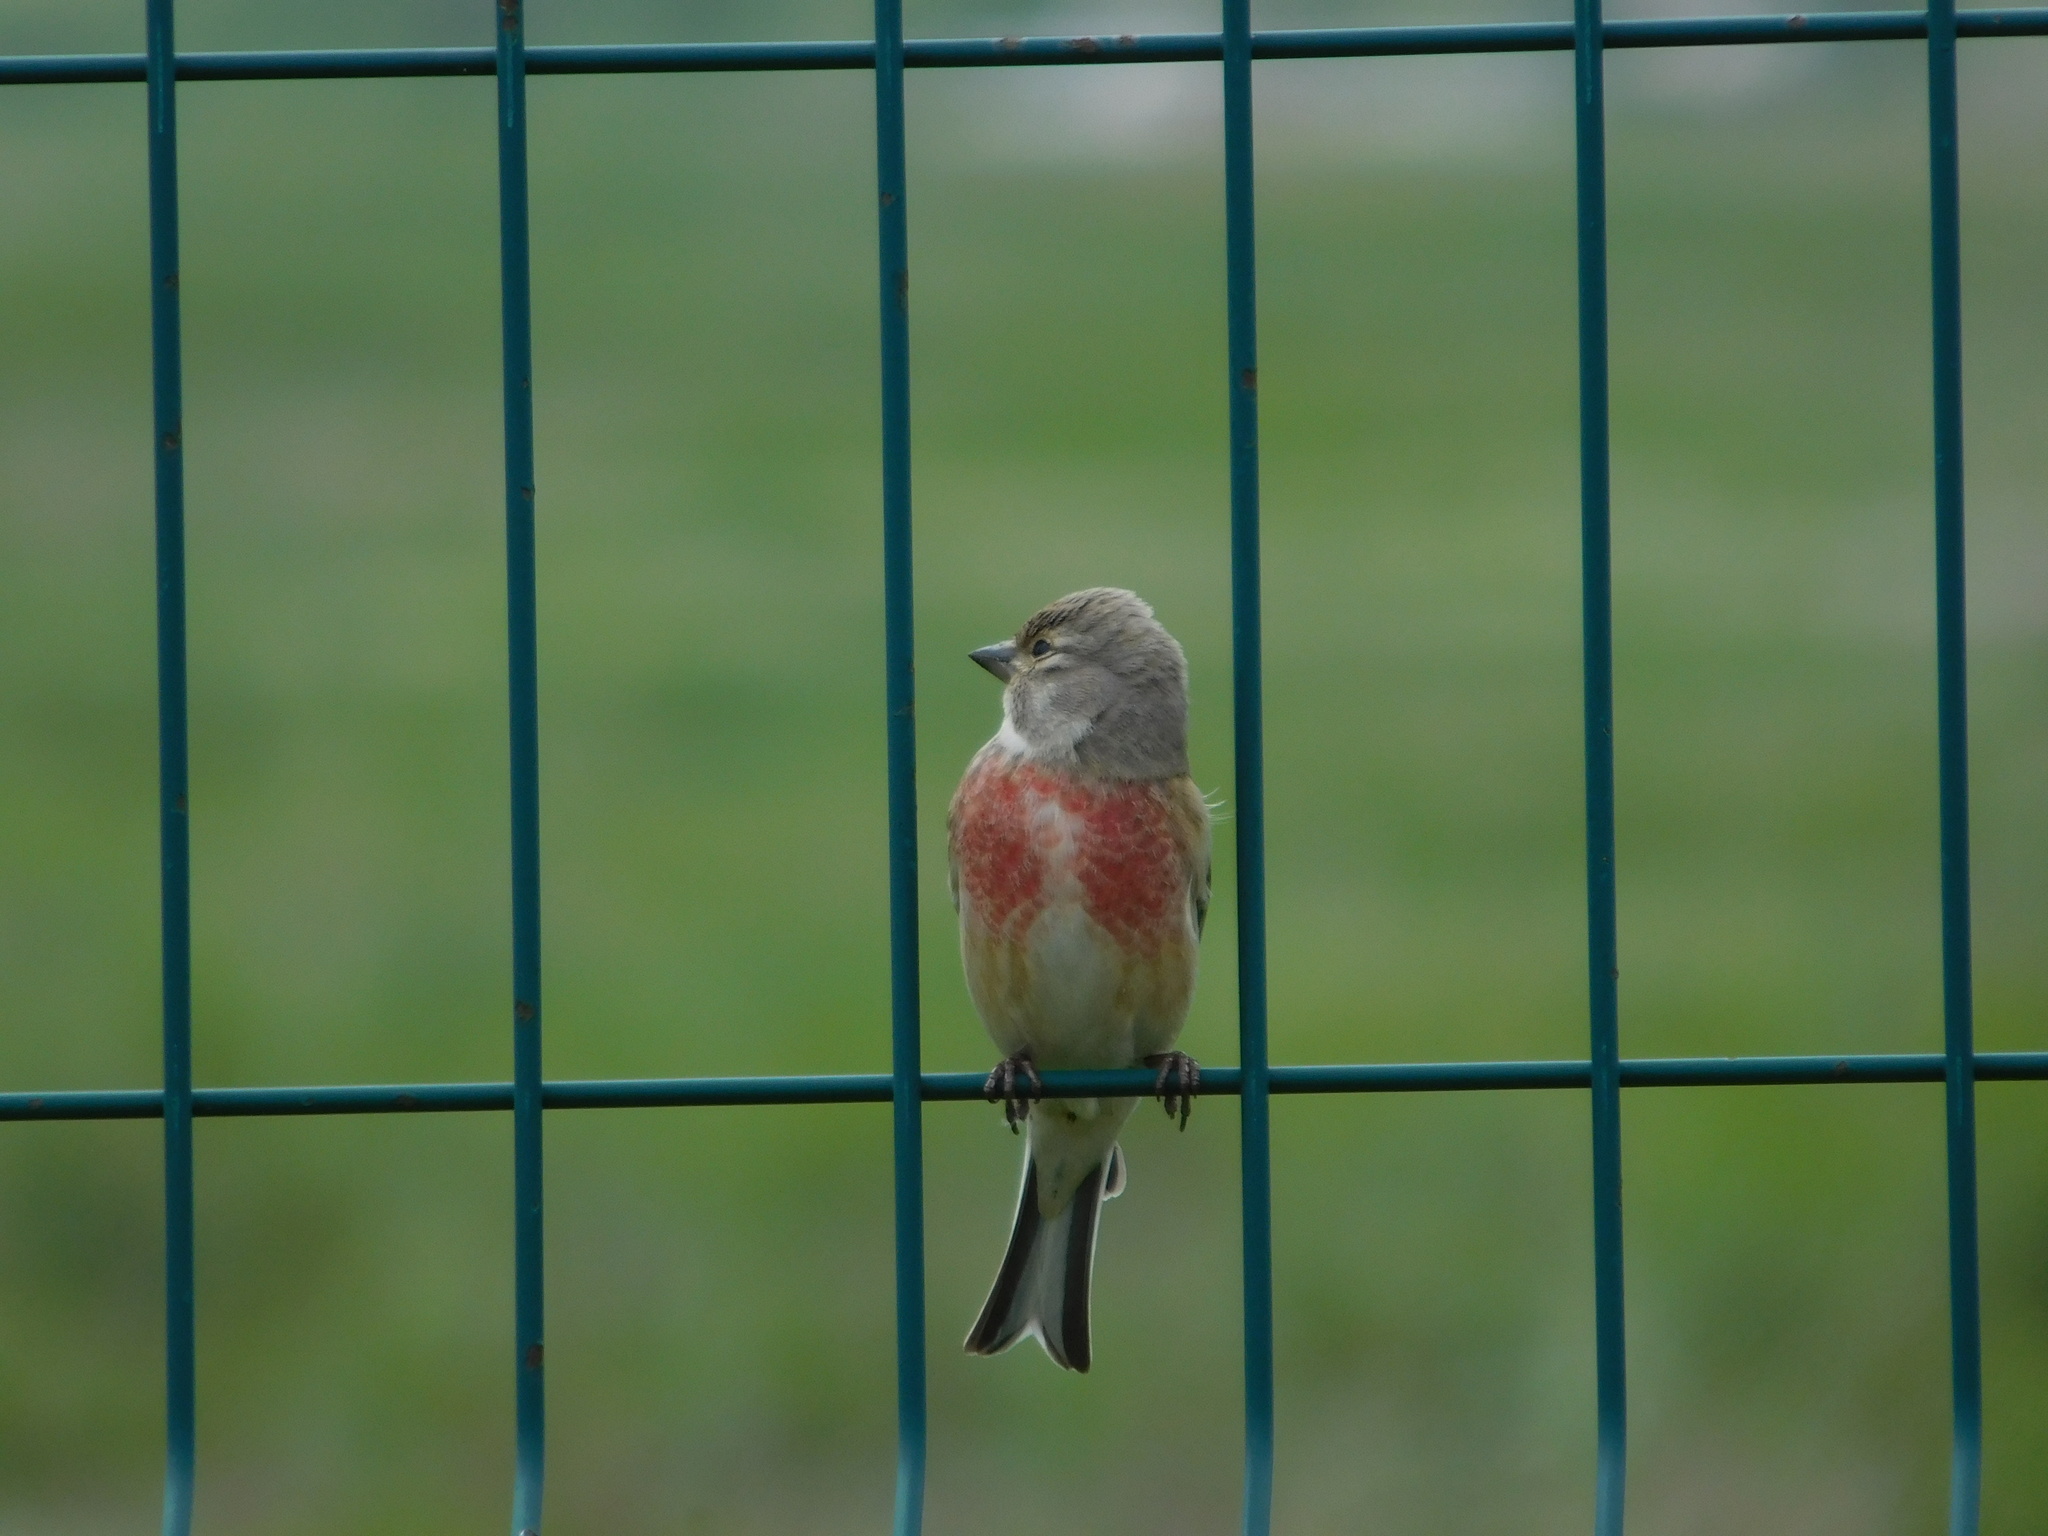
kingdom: Animalia
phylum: Chordata
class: Aves
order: Passeriformes
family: Fringillidae
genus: Linaria
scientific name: Linaria cannabina
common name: Common linnet
